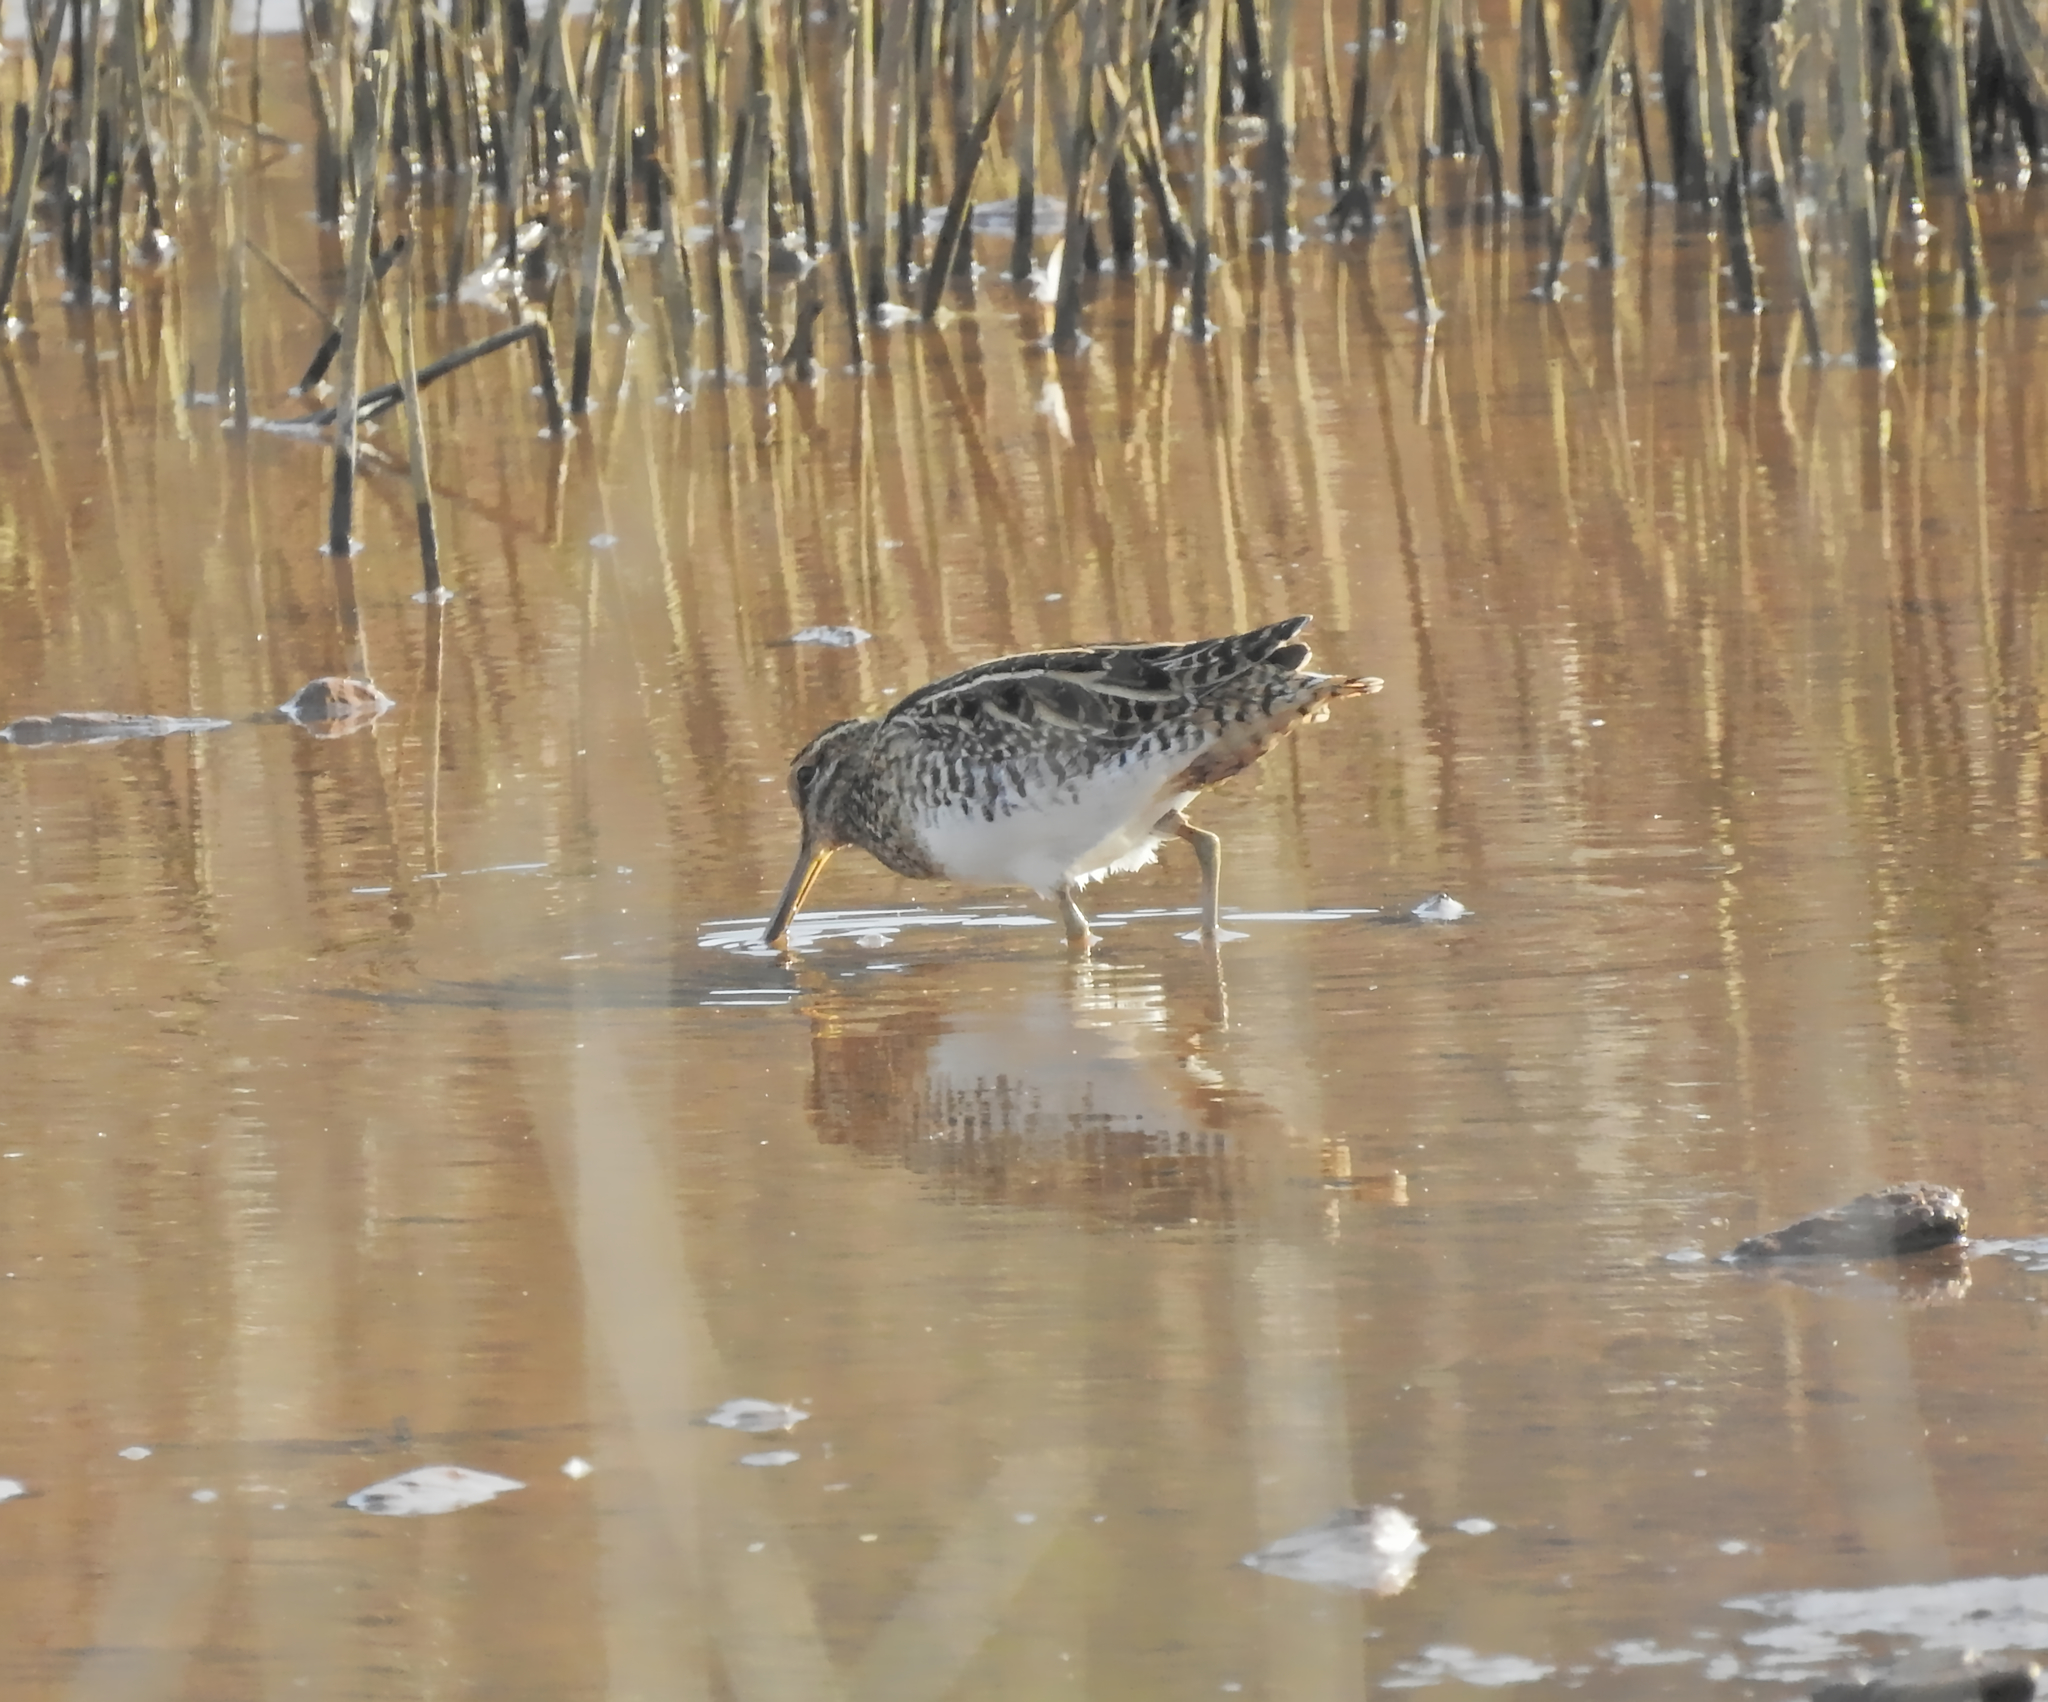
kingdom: Animalia
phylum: Chordata
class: Aves
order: Charadriiformes
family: Scolopacidae
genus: Gallinago
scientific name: Gallinago gallinago
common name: Common snipe
